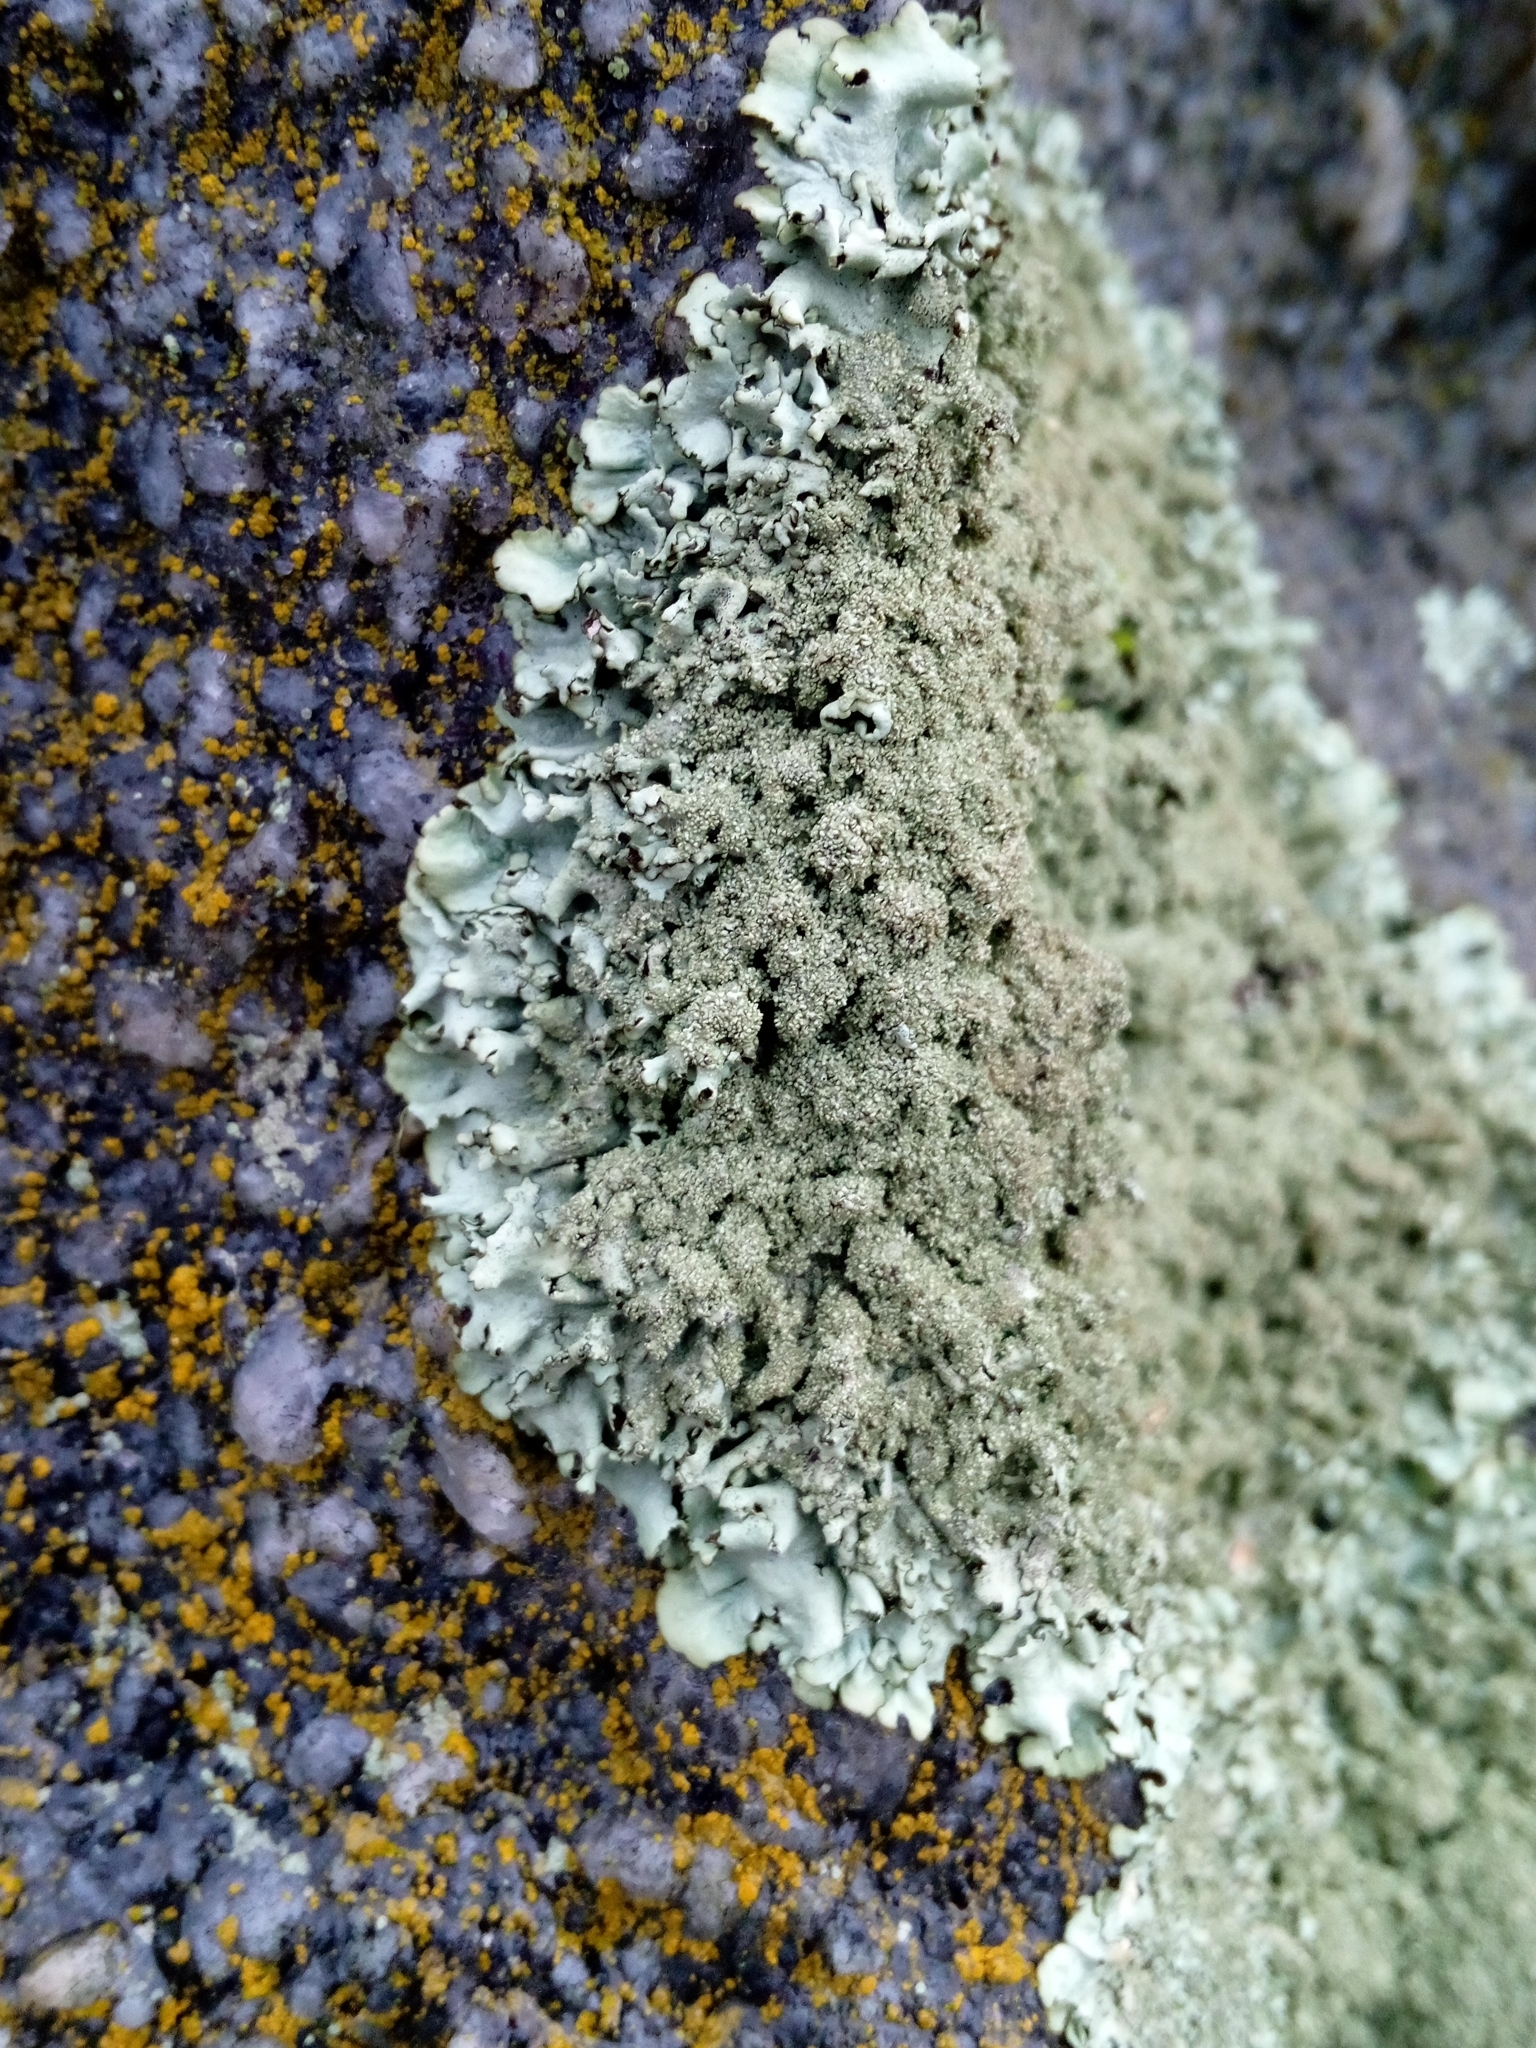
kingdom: Fungi
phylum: Ascomycota
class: Lecanoromycetes
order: Lecanorales
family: Parmeliaceae
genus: Xanthoparmelia
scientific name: Xanthoparmelia conspersa
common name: Peppered rock shield
